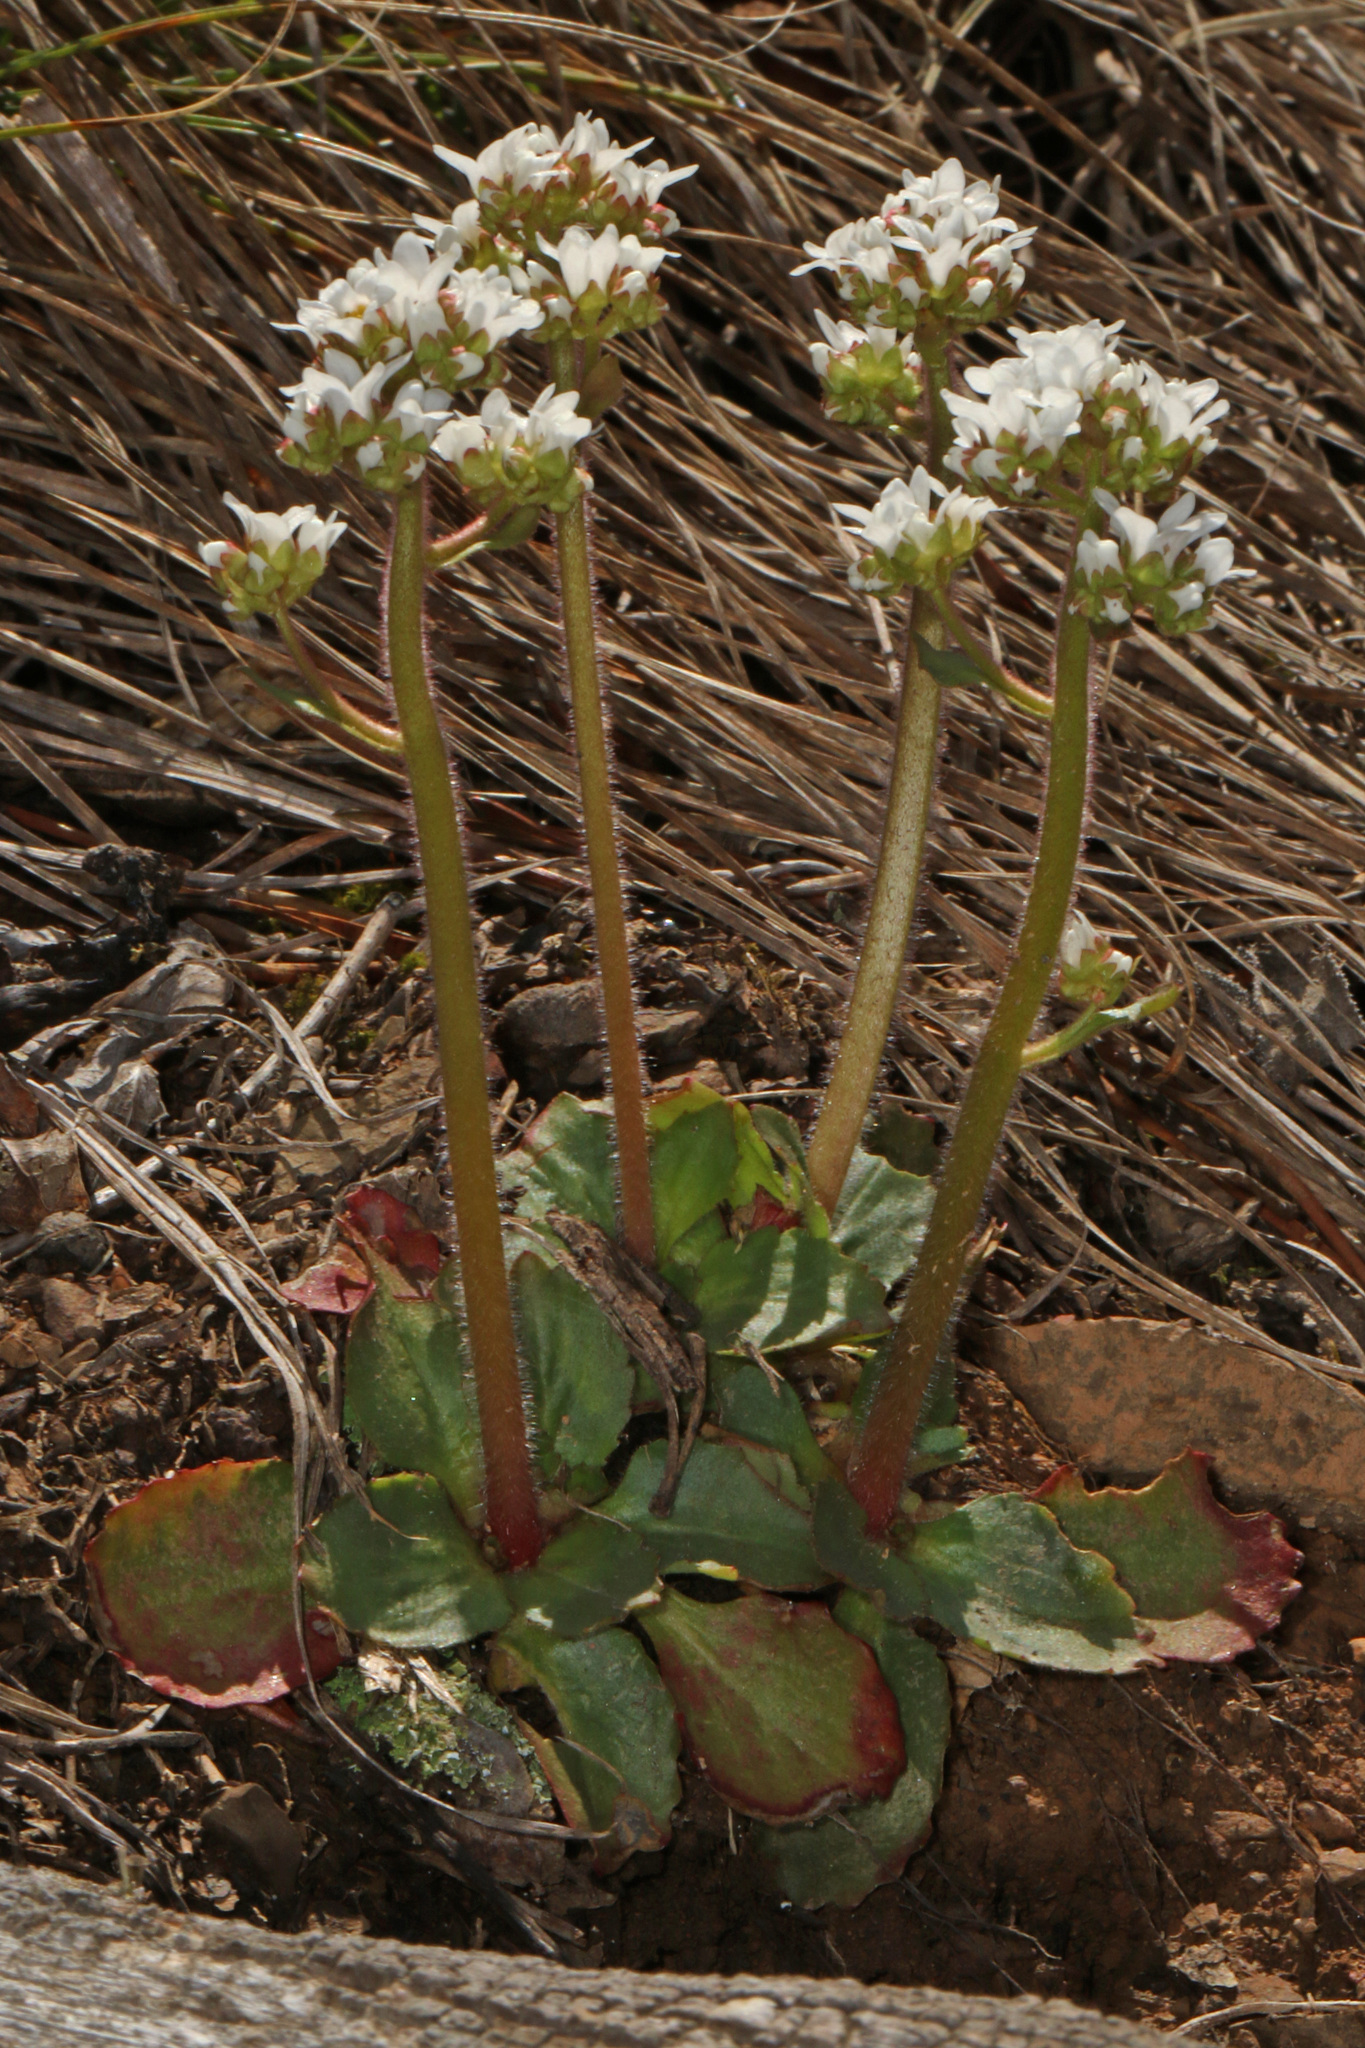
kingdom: Plantae
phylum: Tracheophyta
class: Magnoliopsida
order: Saxifragales
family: Saxifragaceae
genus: Micranthes
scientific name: Micranthes virginiensis
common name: Early saxifrage
